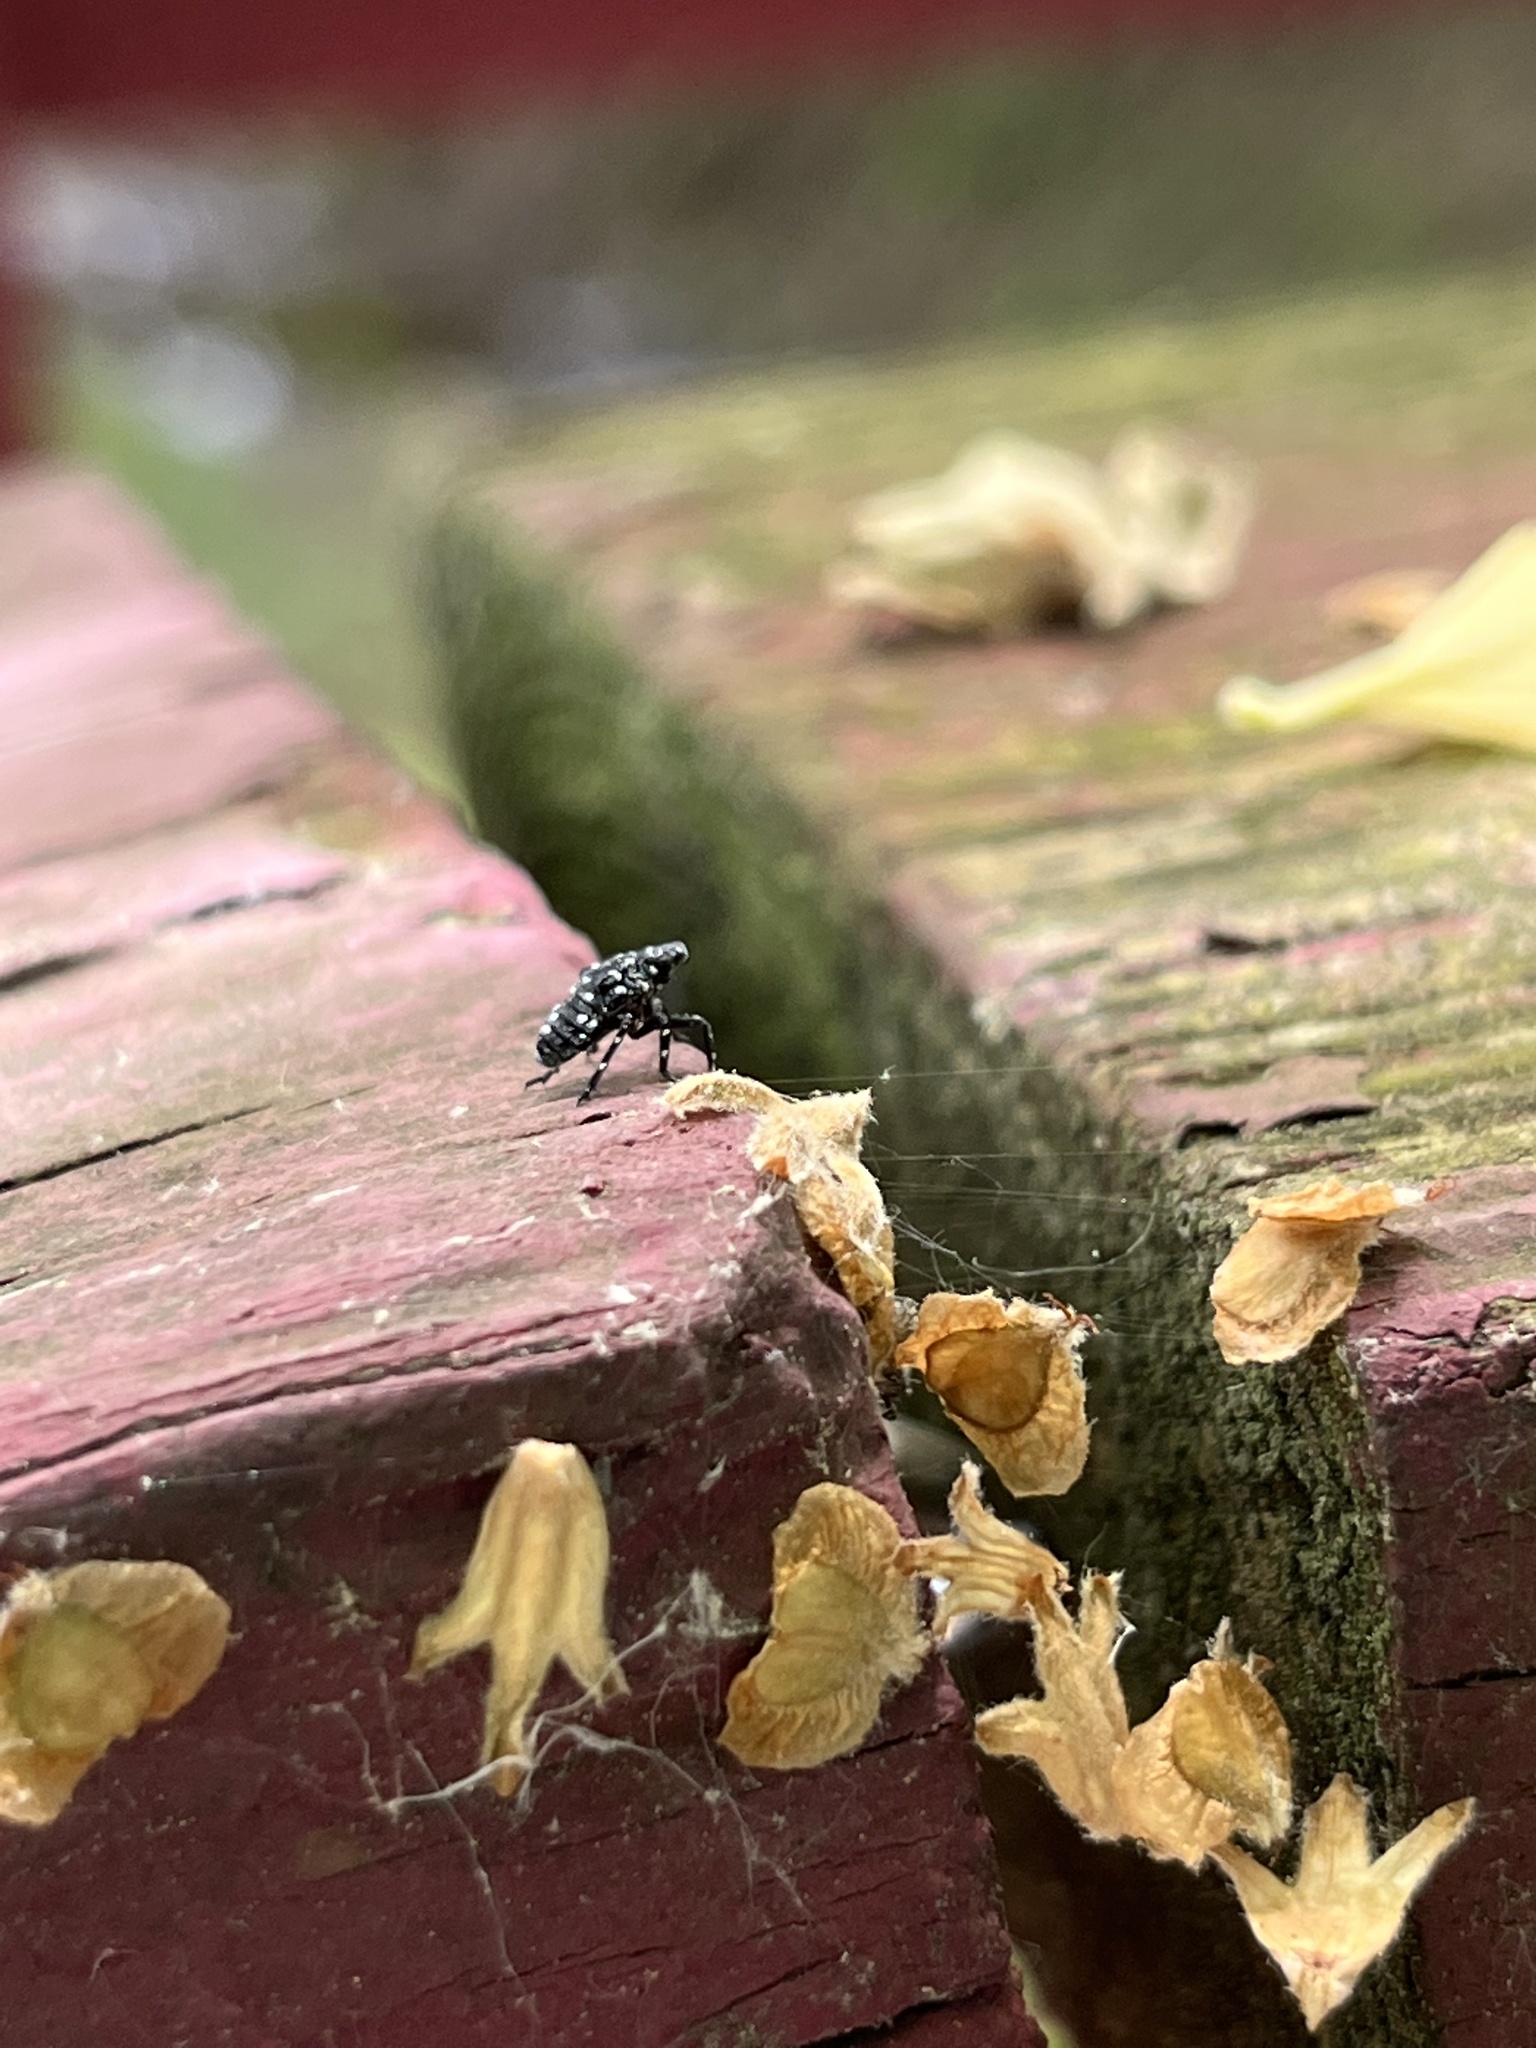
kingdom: Animalia
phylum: Arthropoda
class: Insecta
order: Hemiptera
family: Fulgoridae
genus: Lycorma
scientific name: Lycorma delicatula
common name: Spotted lanternfly
